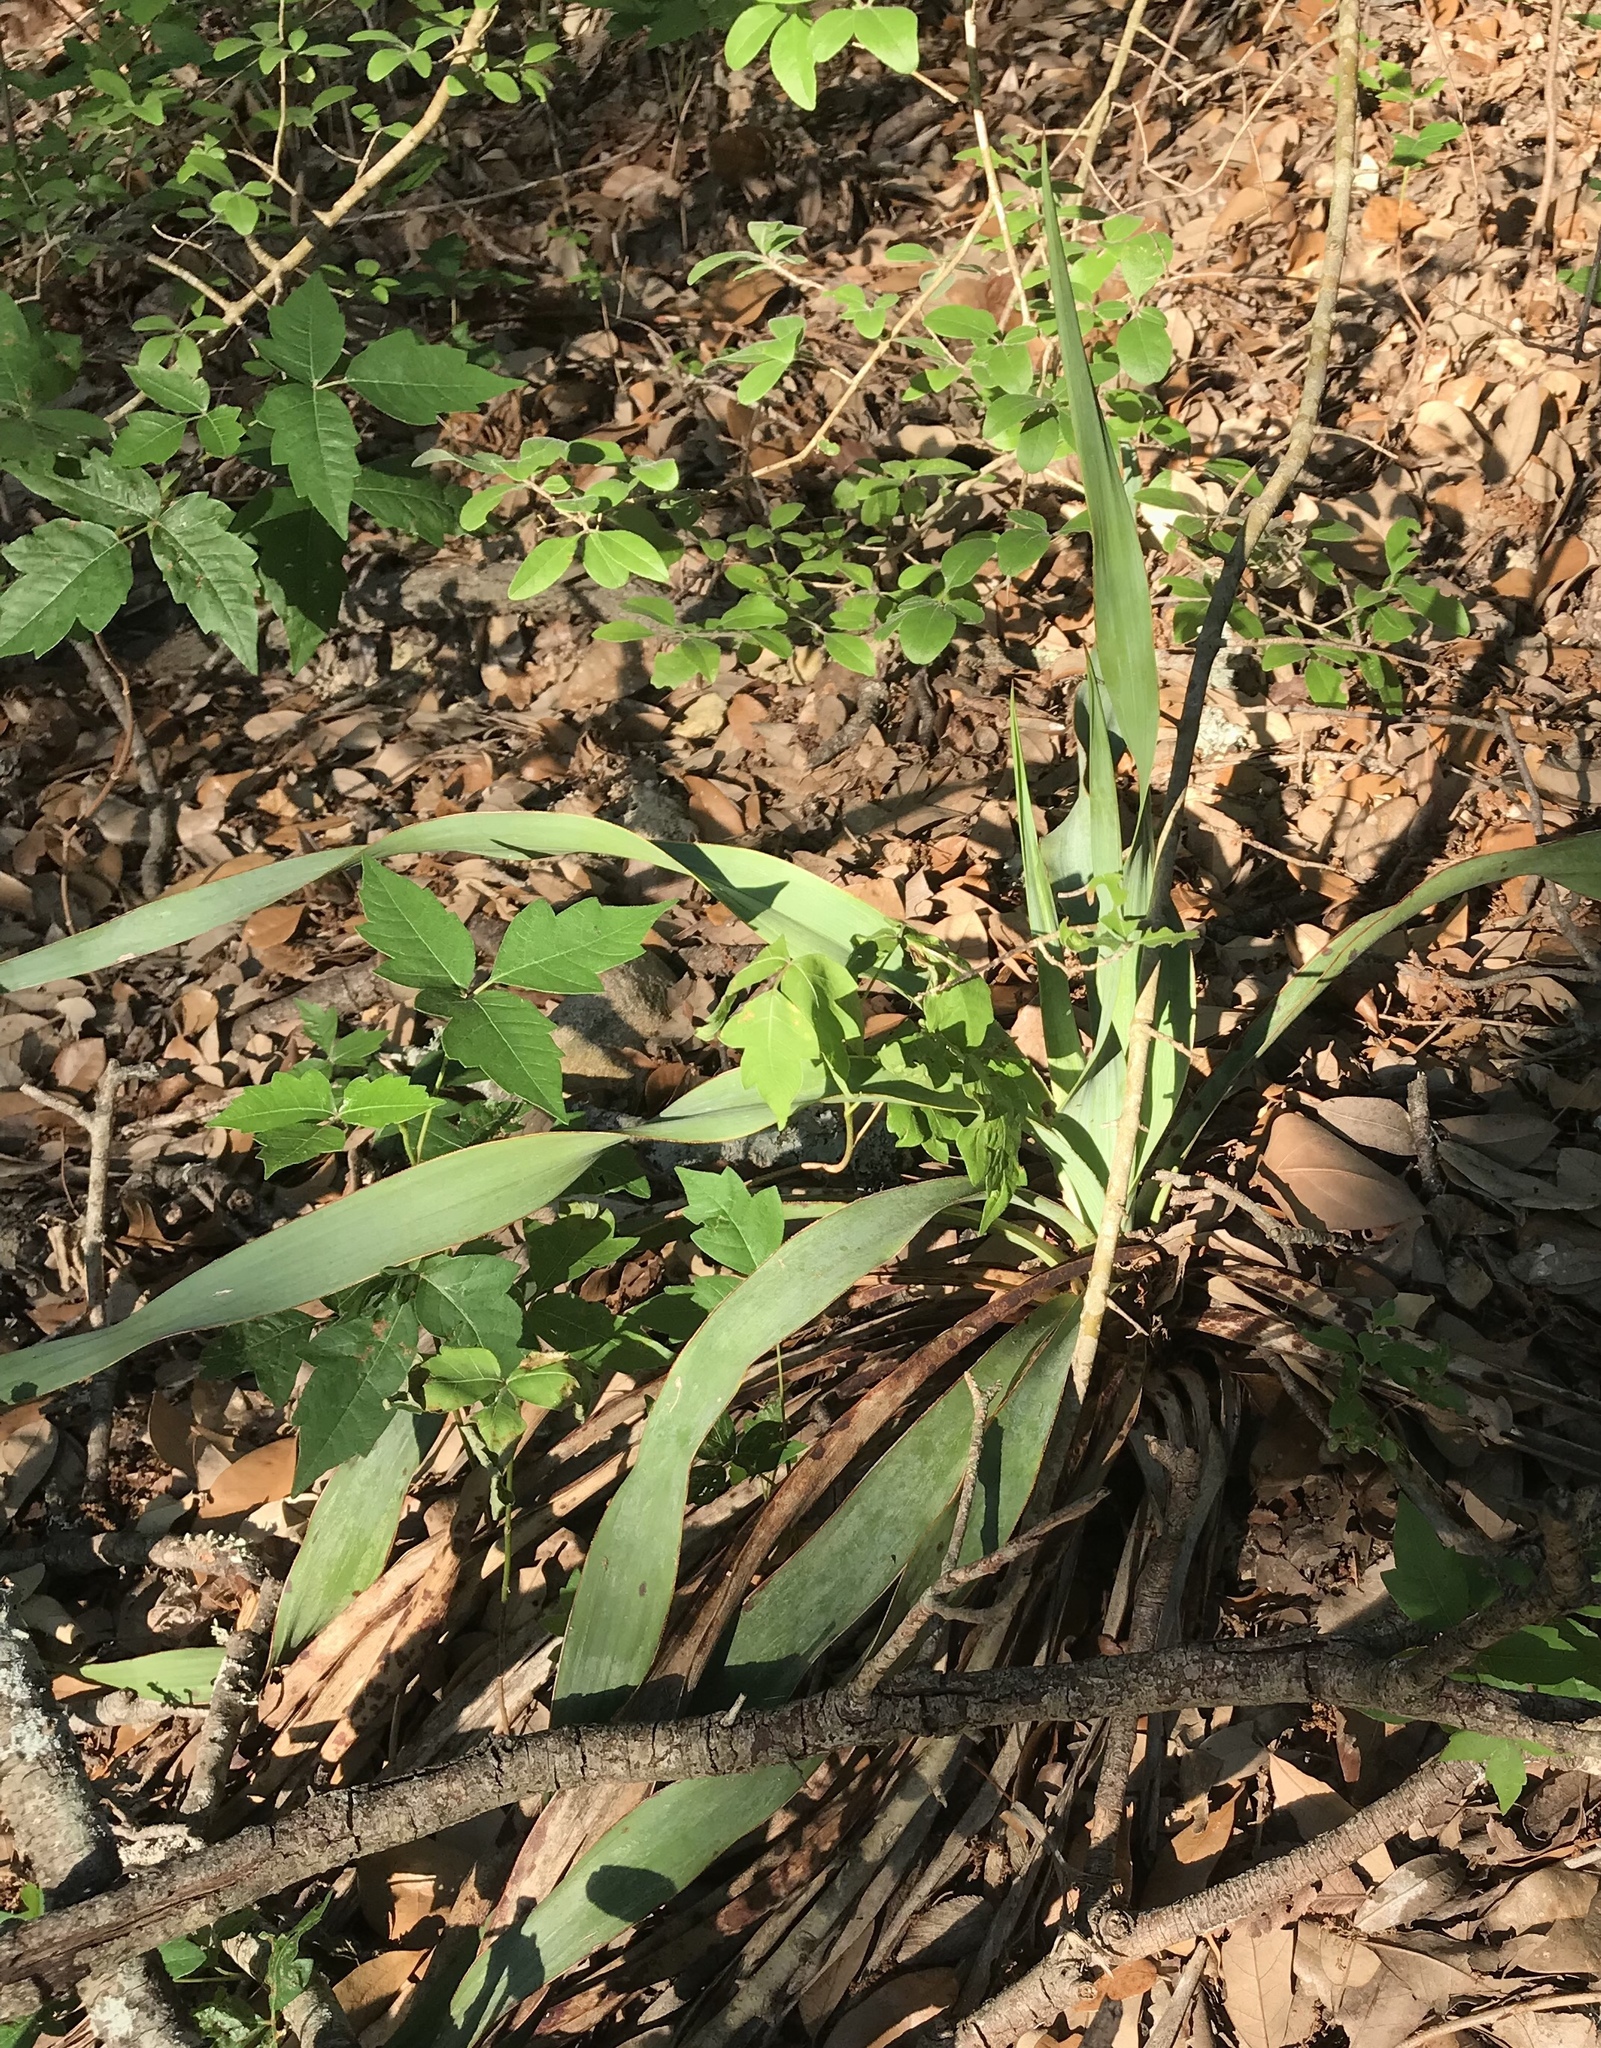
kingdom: Plantae
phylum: Tracheophyta
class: Liliopsida
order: Asparagales
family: Asparagaceae
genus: Yucca
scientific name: Yucca rupicola
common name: Twisted-leaf spanish-dagger
